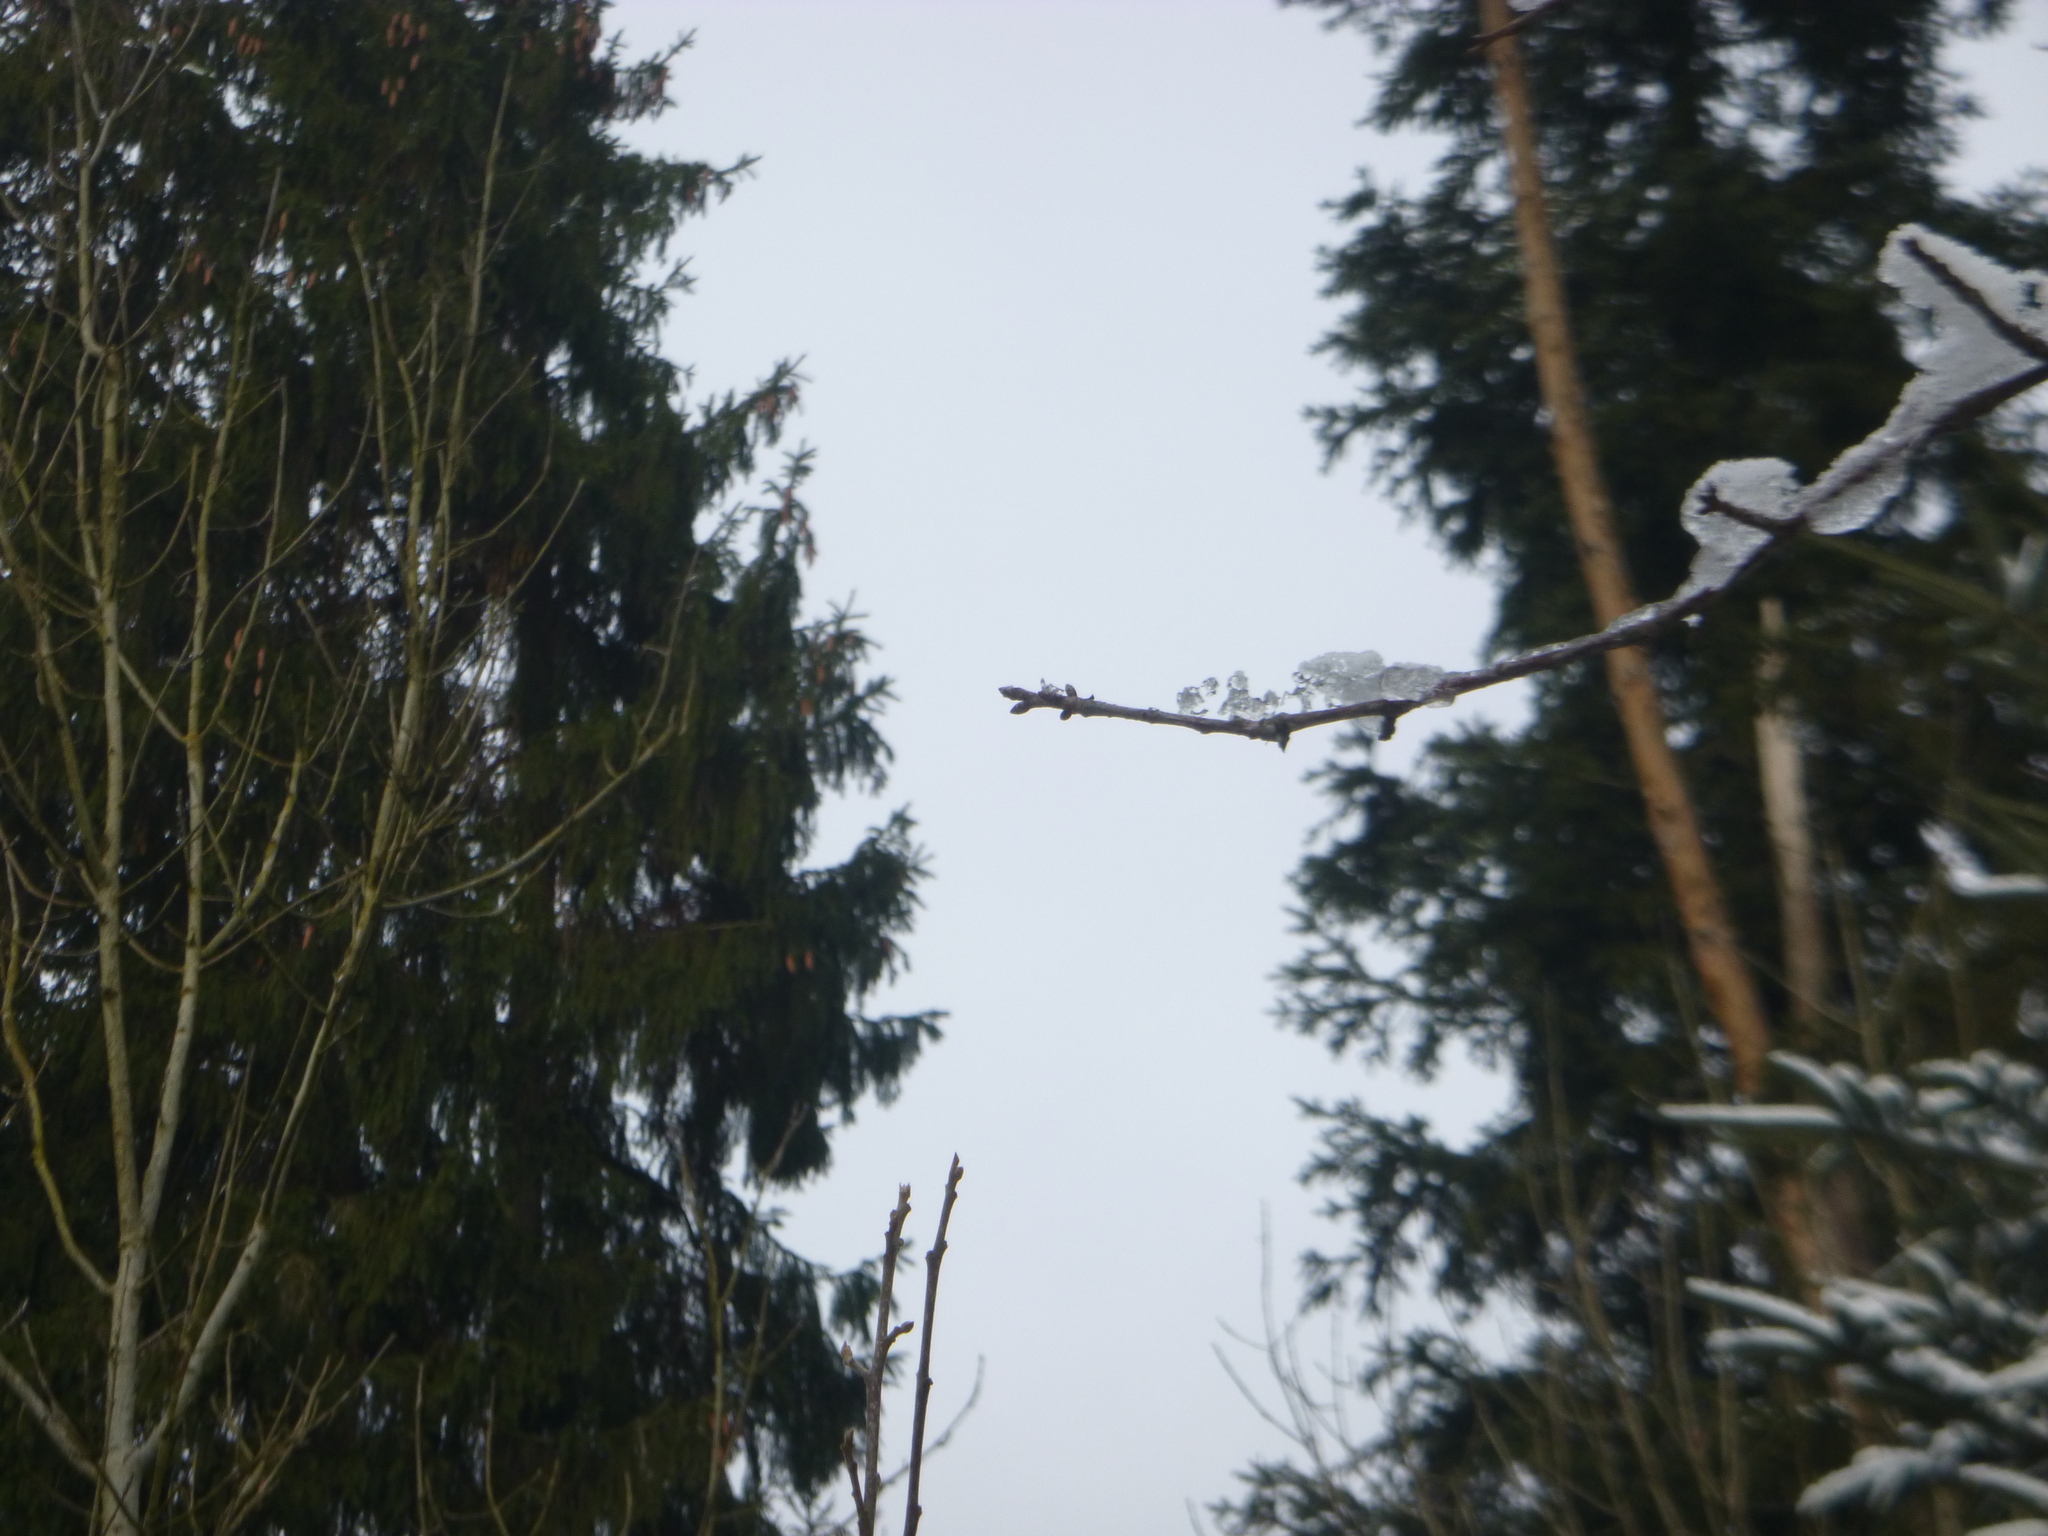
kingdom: Plantae
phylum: Tracheophyta
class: Magnoliopsida
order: Rosales
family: Rosaceae
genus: Prunus
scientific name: Prunus avium
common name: Sweet cherry
